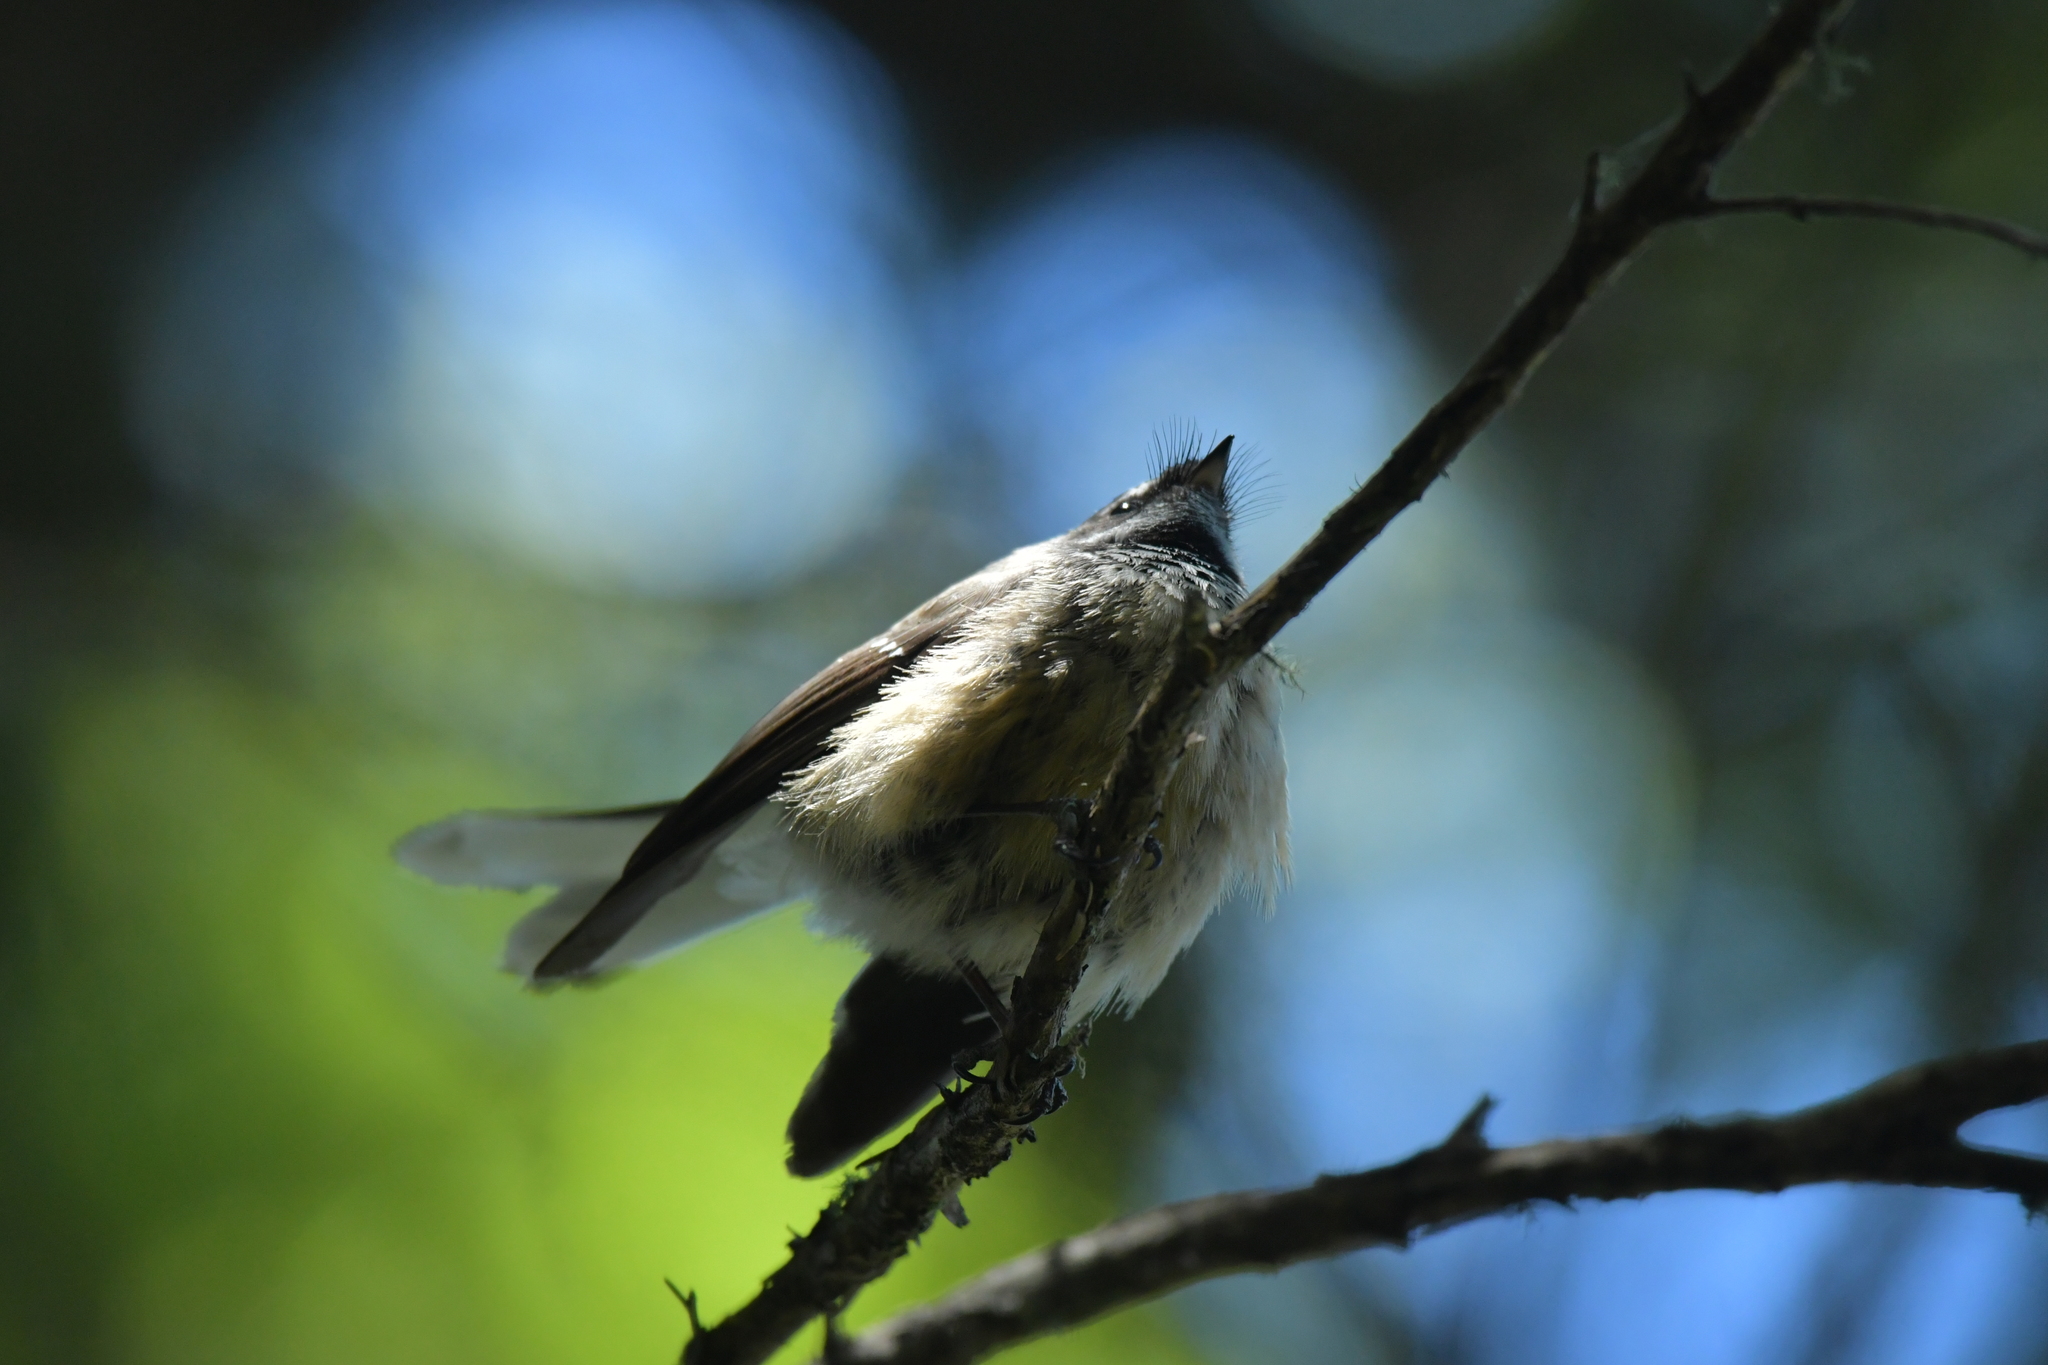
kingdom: Animalia
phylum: Chordata
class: Aves
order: Passeriformes
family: Rhipiduridae
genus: Rhipidura
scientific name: Rhipidura fuliginosa
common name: New zealand fantail
